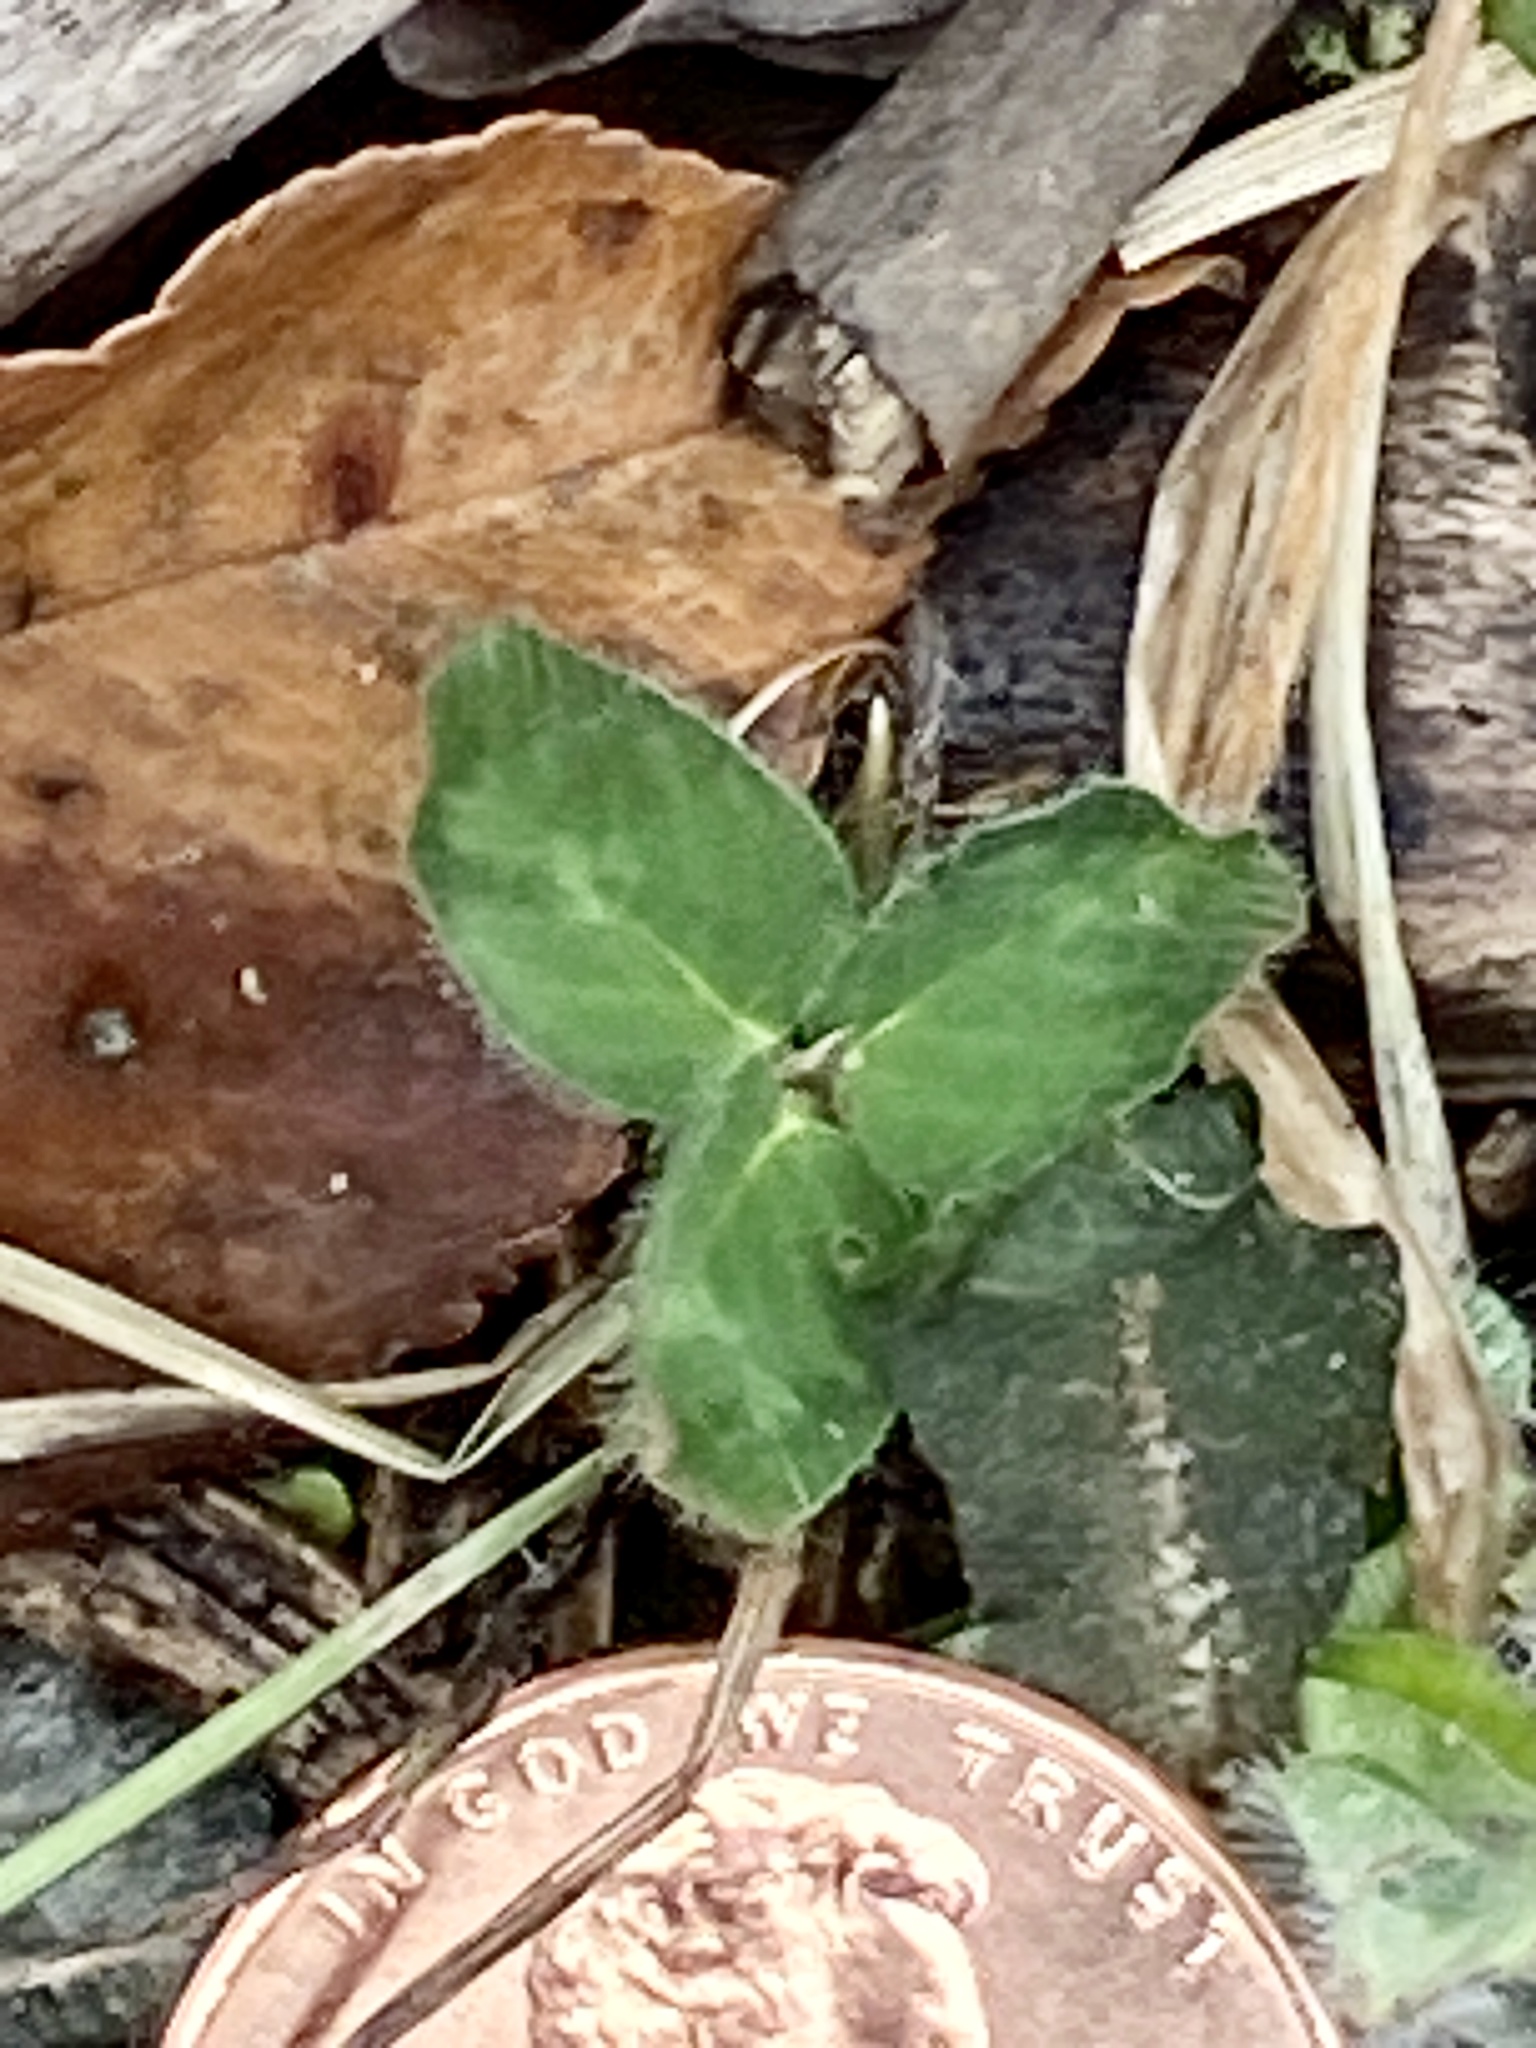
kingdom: Plantae
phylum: Tracheophyta
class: Magnoliopsida
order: Fabales
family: Fabaceae
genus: Trifolium
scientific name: Trifolium pratense
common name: Red clover
